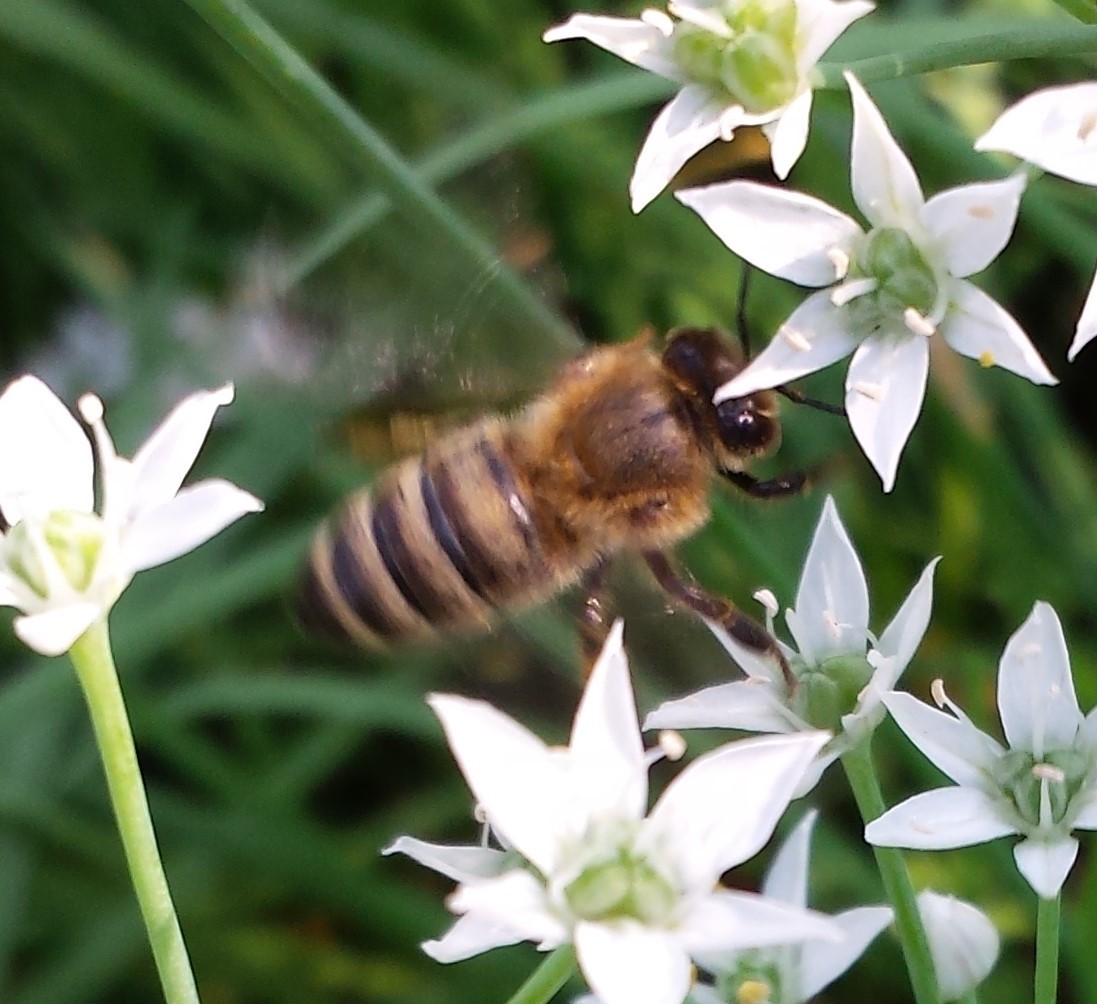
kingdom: Animalia
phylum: Arthropoda
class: Insecta
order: Hymenoptera
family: Apidae
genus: Apis
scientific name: Apis mellifera
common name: Honey bee
